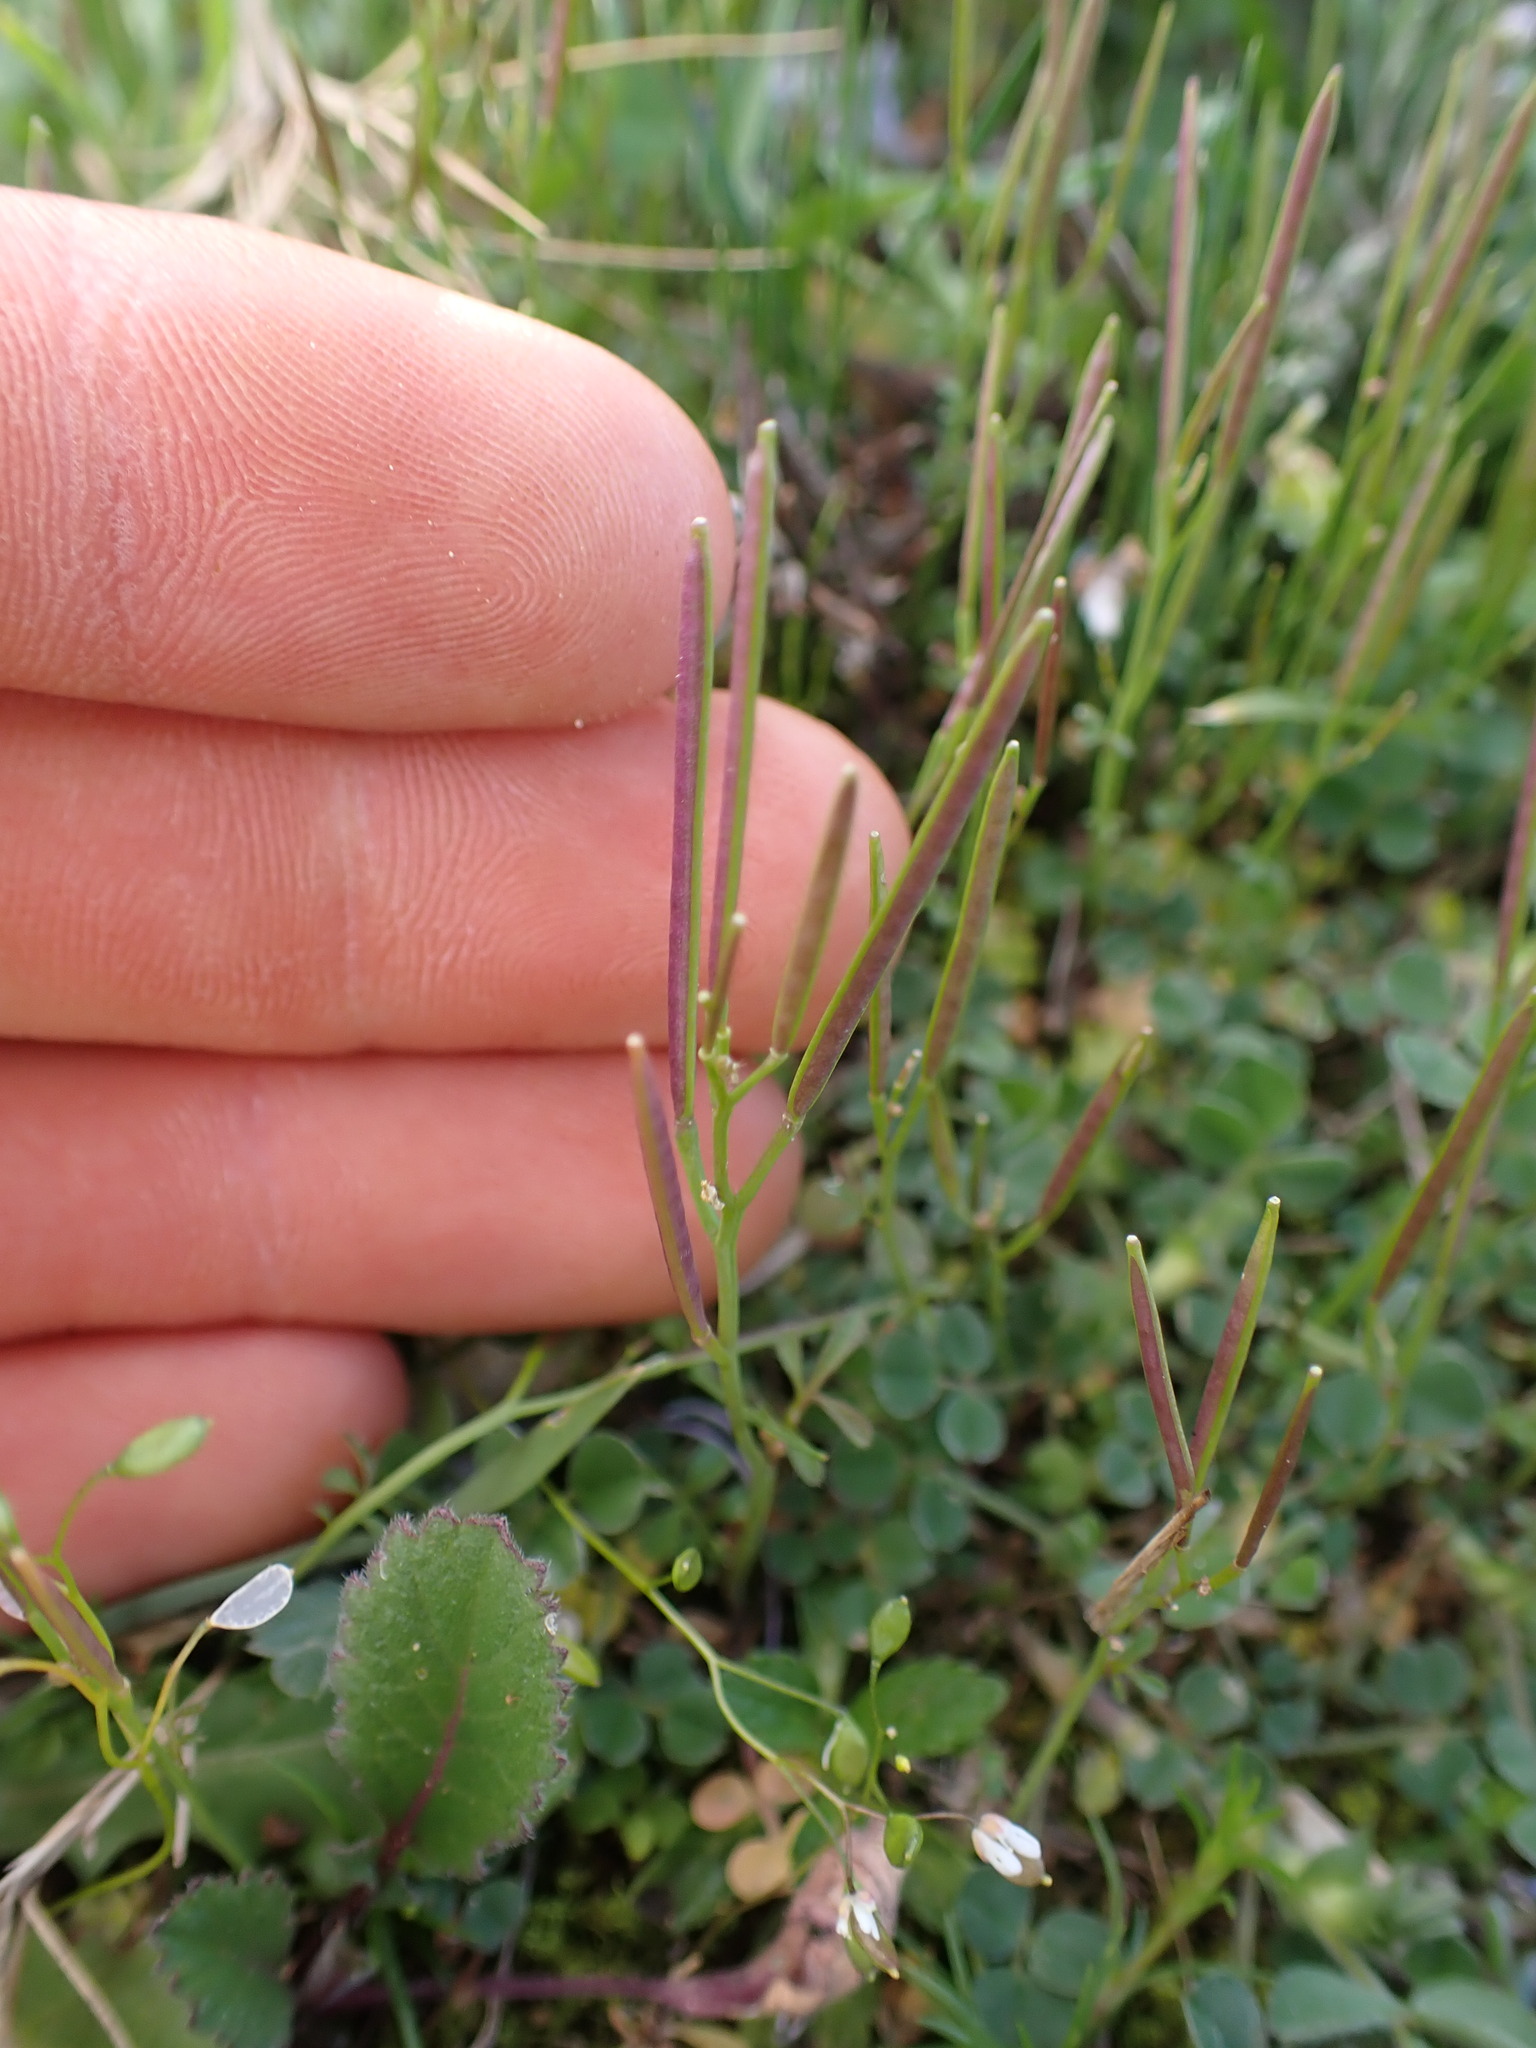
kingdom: Plantae
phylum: Tracheophyta
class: Magnoliopsida
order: Brassicales
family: Brassicaceae
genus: Cardamine
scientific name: Cardamine hirsuta
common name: Hairy bittercress
